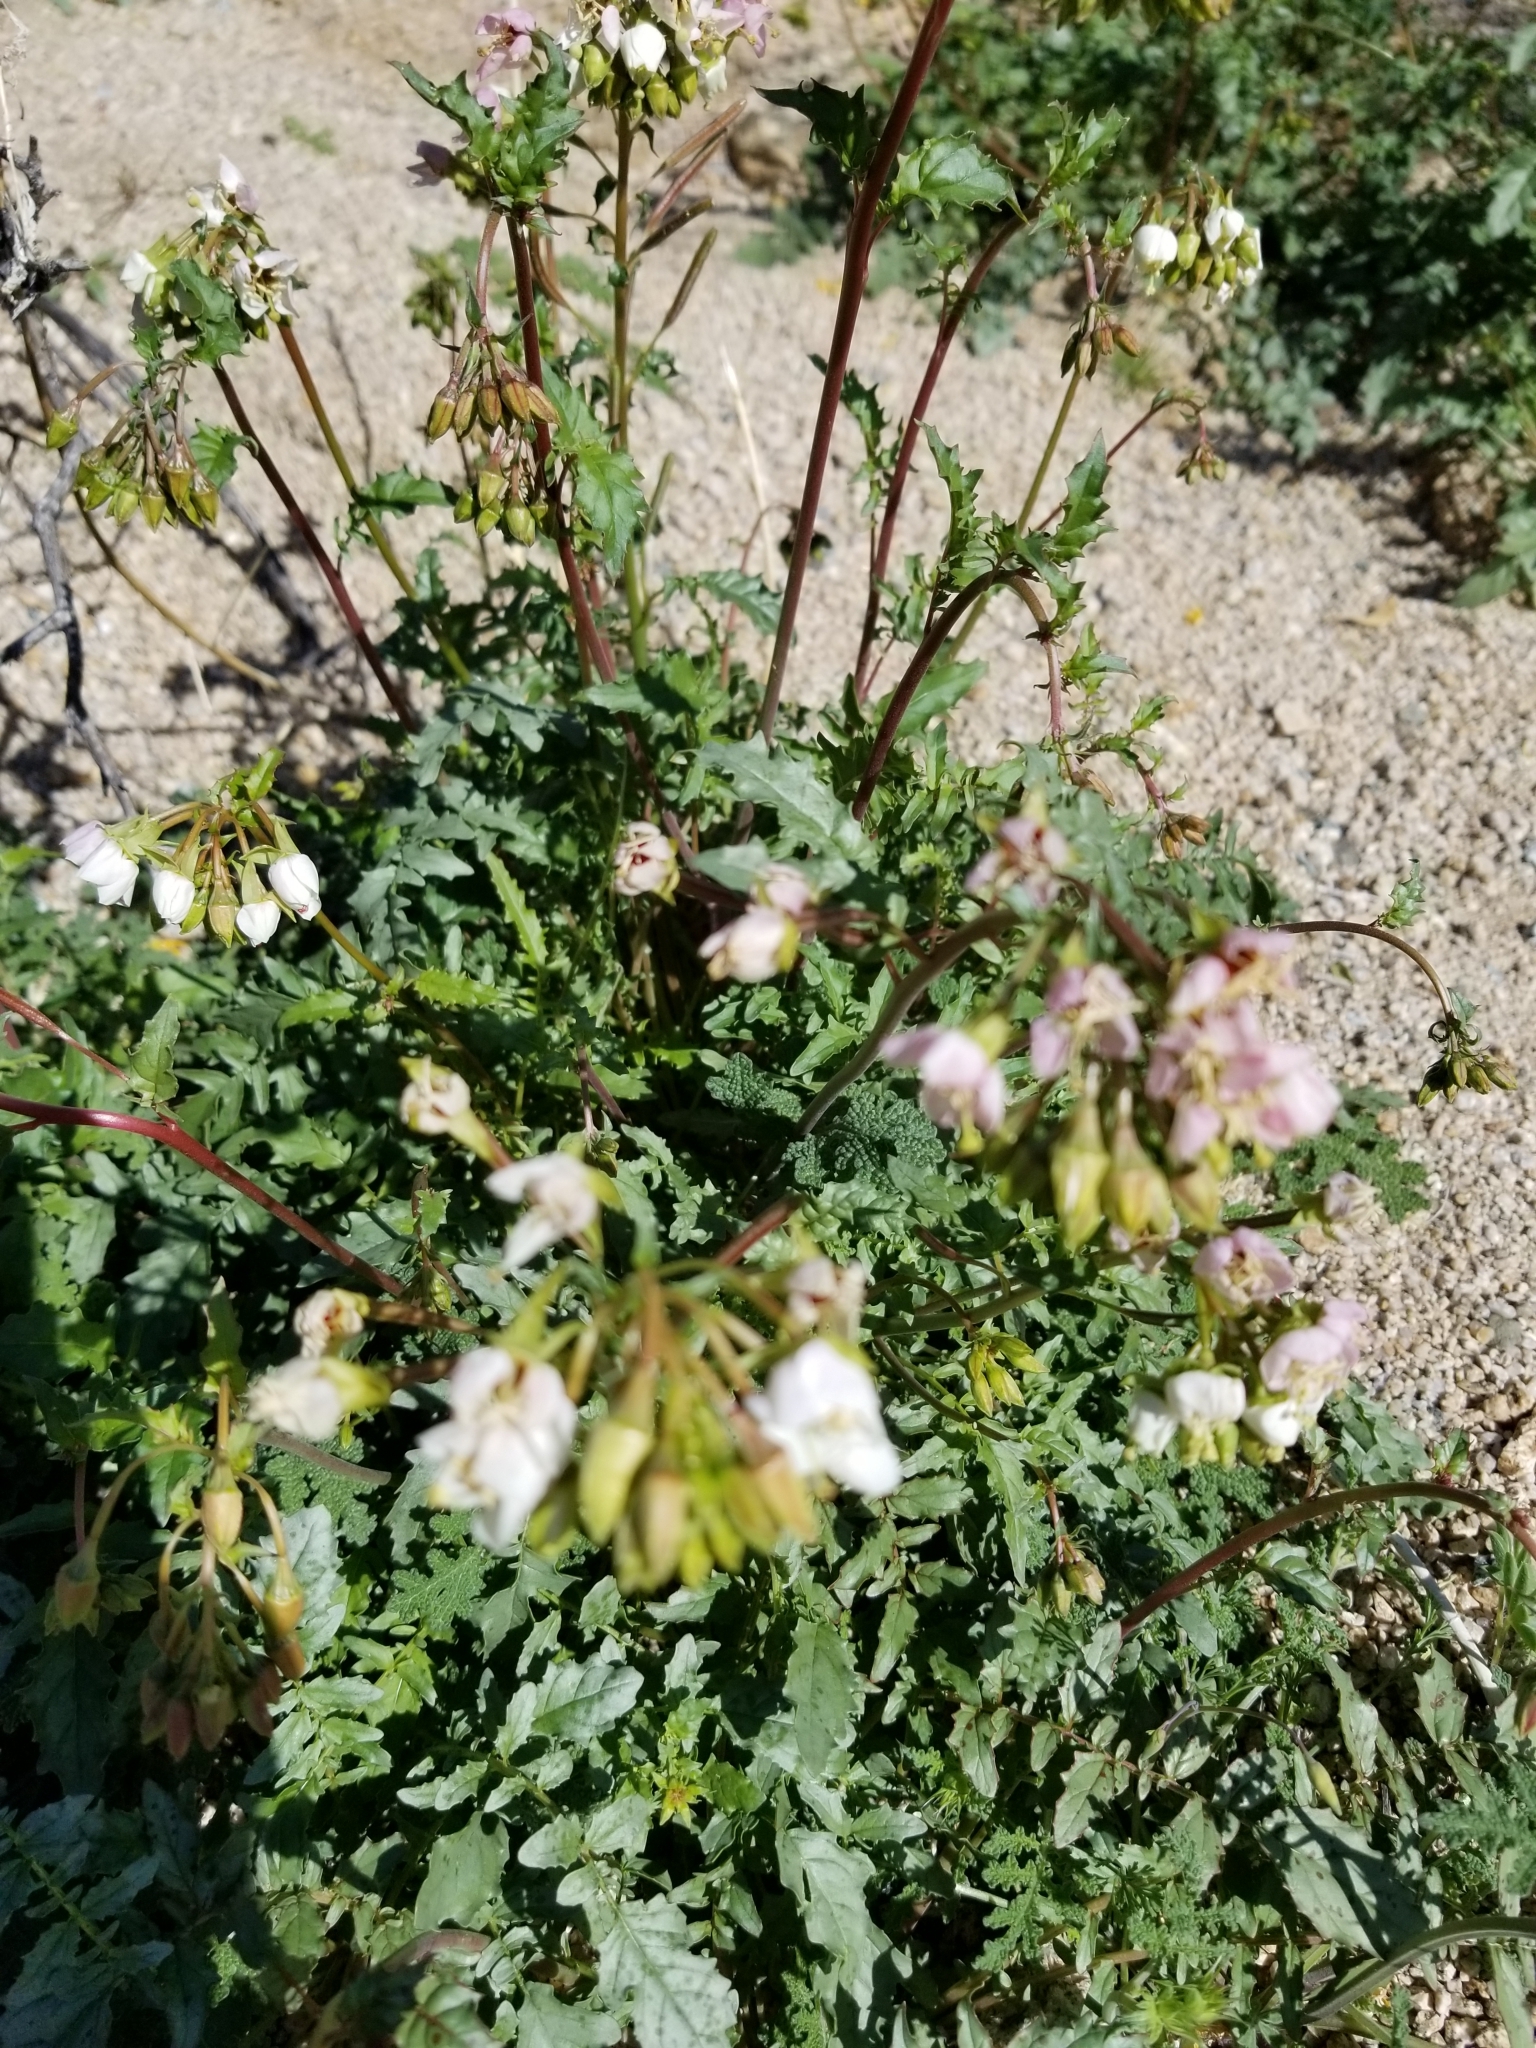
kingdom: Plantae
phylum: Tracheophyta
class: Magnoliopsida
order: Myrtales
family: Onagraceae
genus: Chylismia
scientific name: Chylismia claviformis
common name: Browneyes
